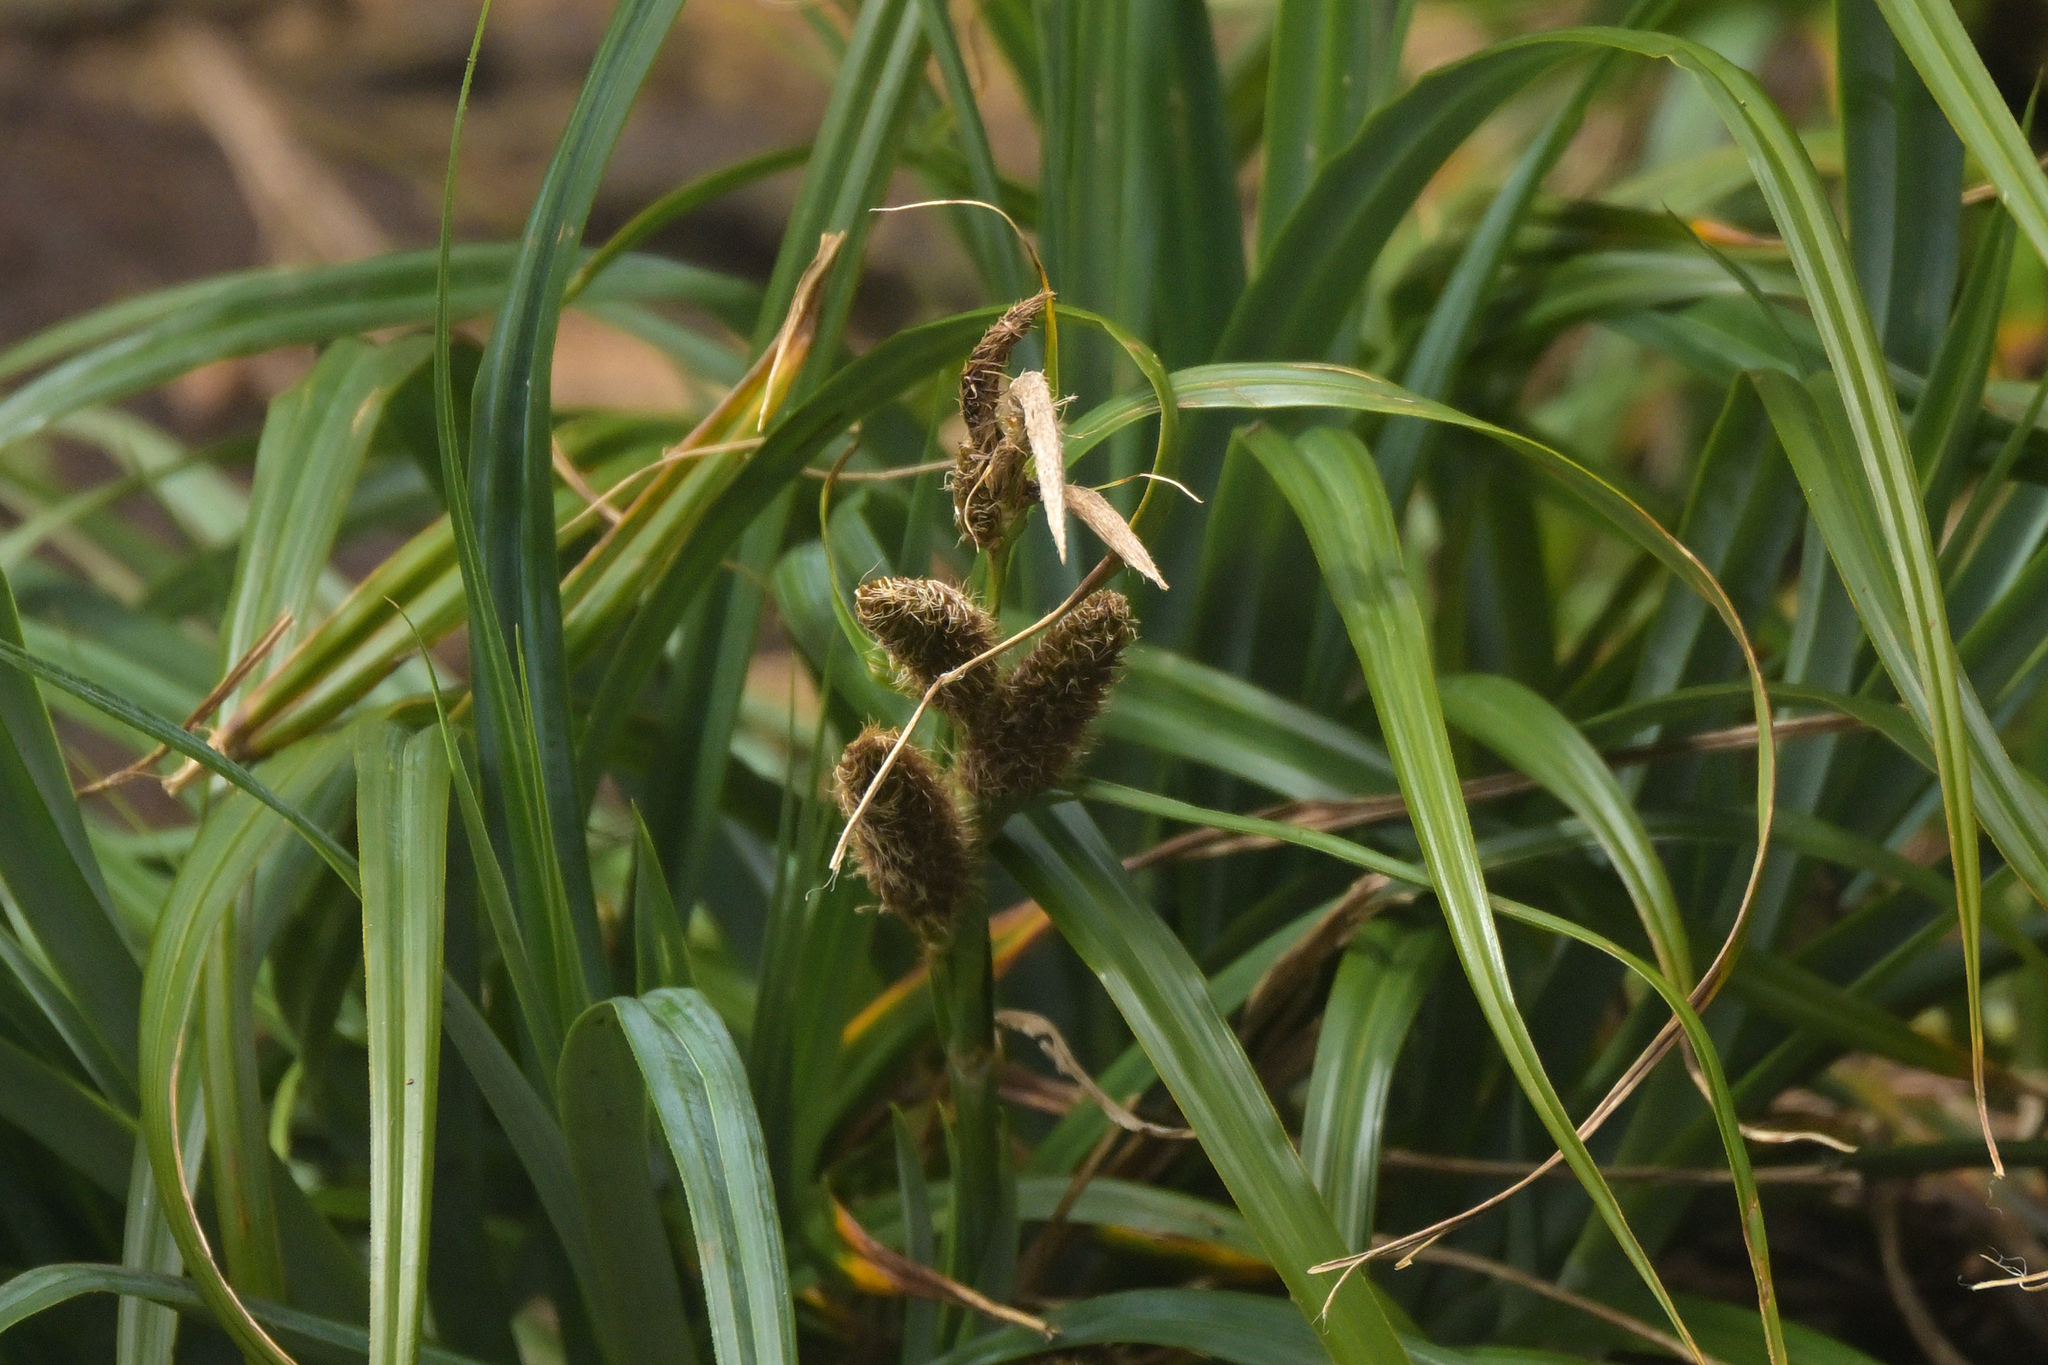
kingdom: Plantae
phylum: Tracheophyta
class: Liliopsida
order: Poales
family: Cyperaceae
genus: Carex
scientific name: Carex trifida
